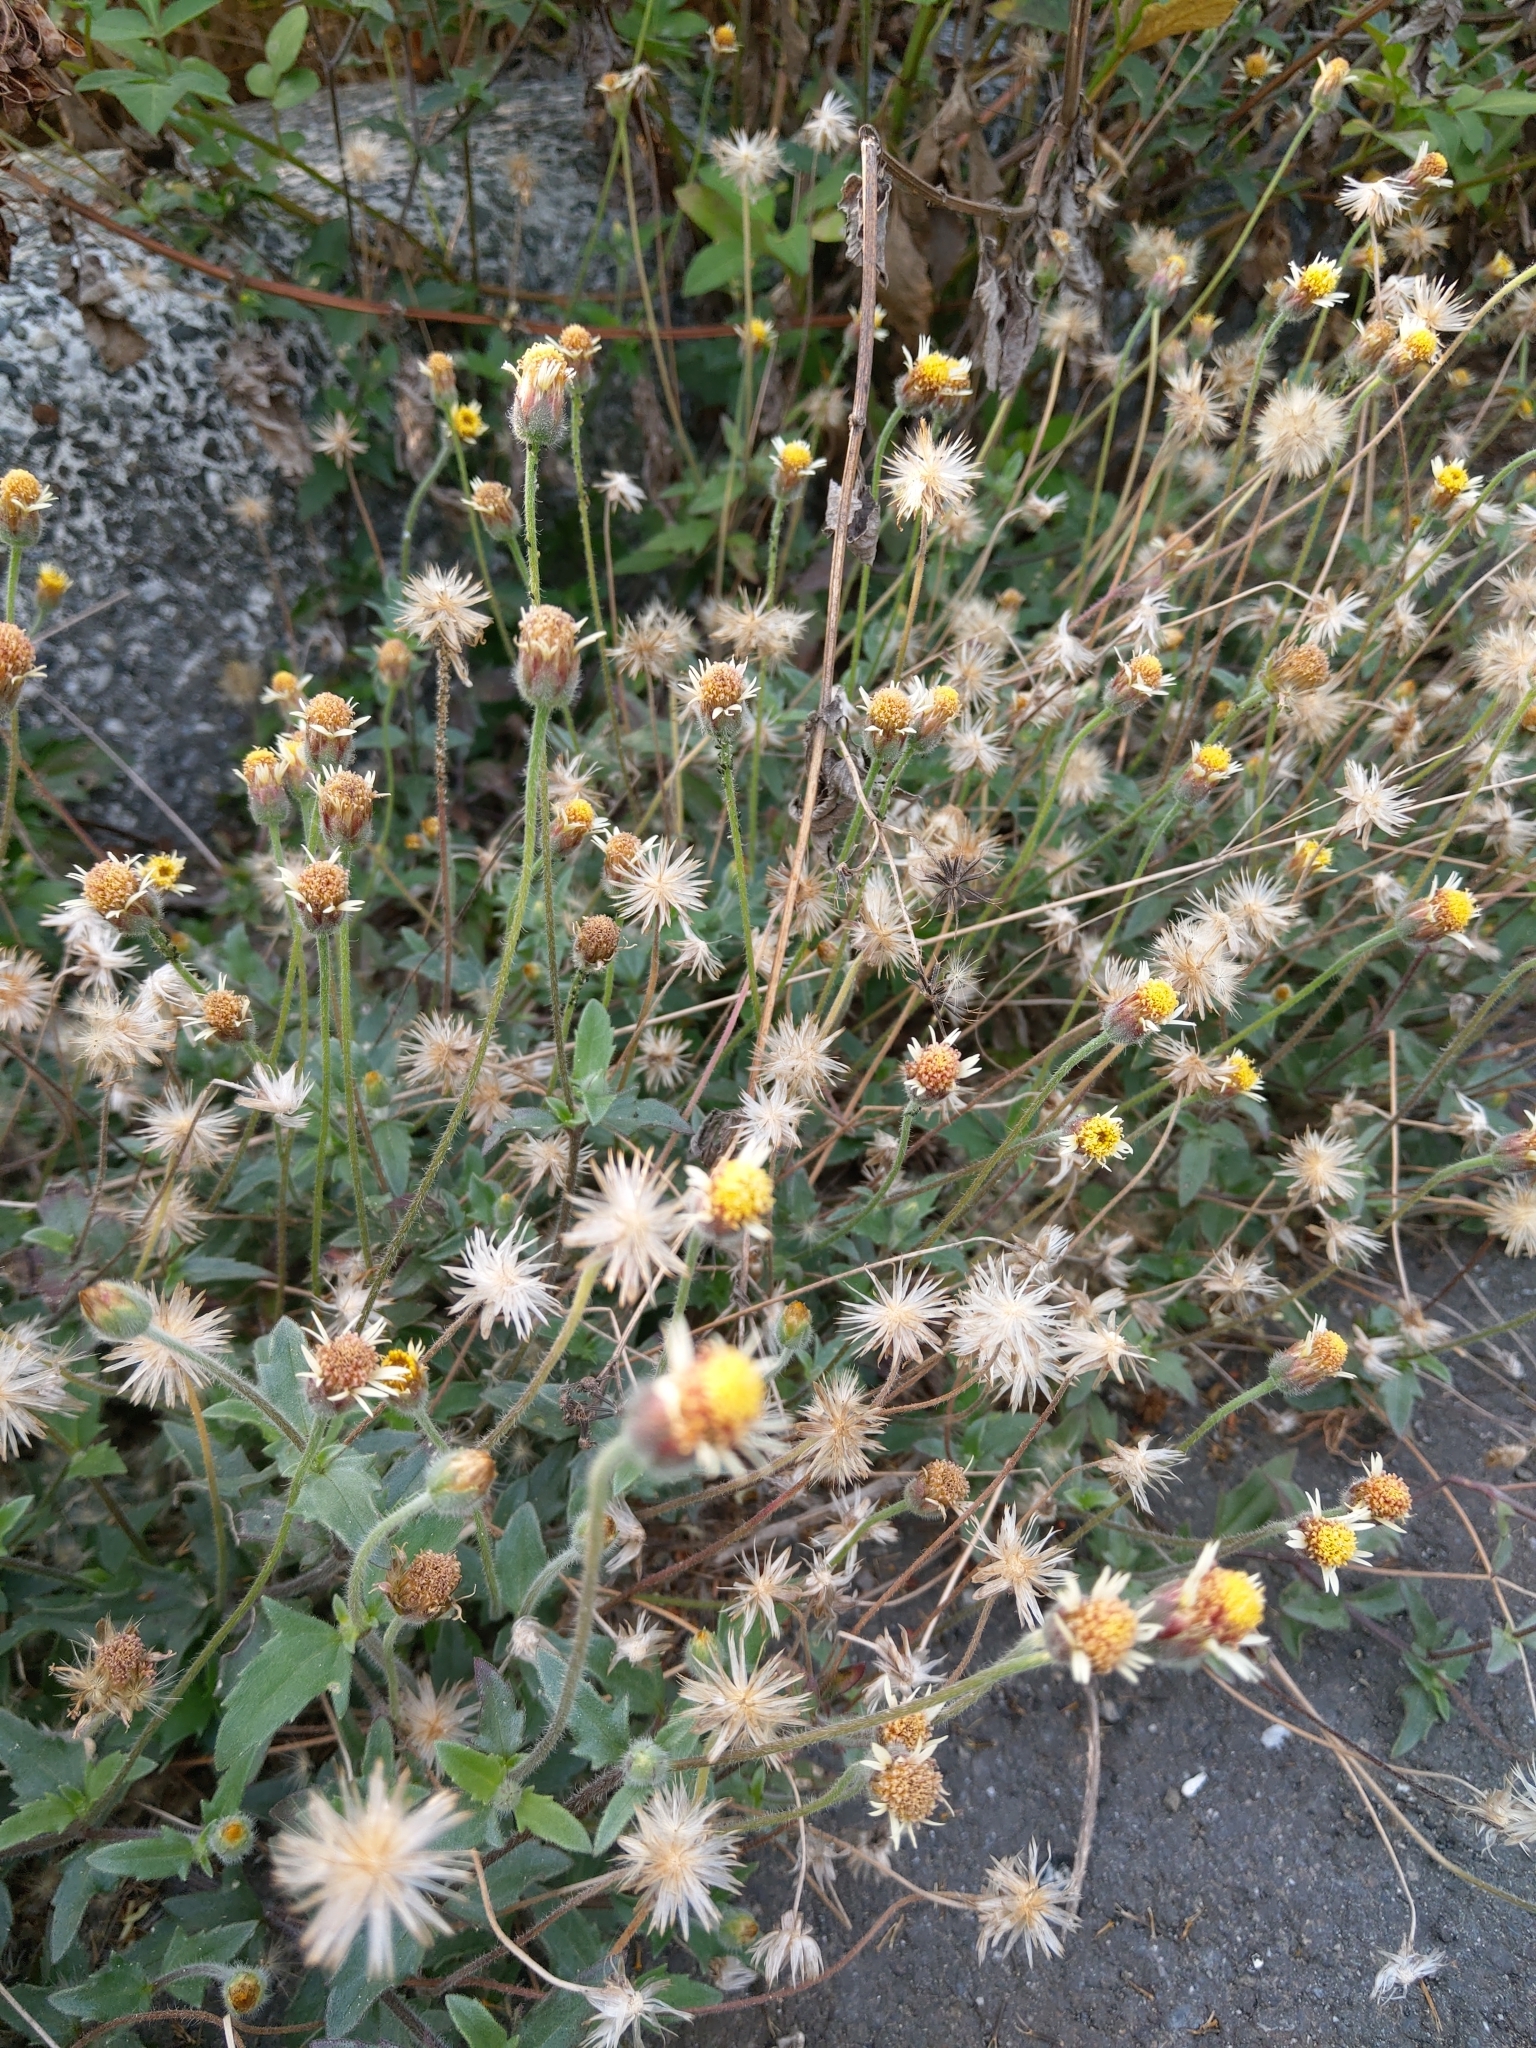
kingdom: Plantae
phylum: Tracheophyta
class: Magnoliopsida
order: Asterales
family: Asteraceae
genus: Tridax
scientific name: Tridax procumbens
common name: Coatbuttons
